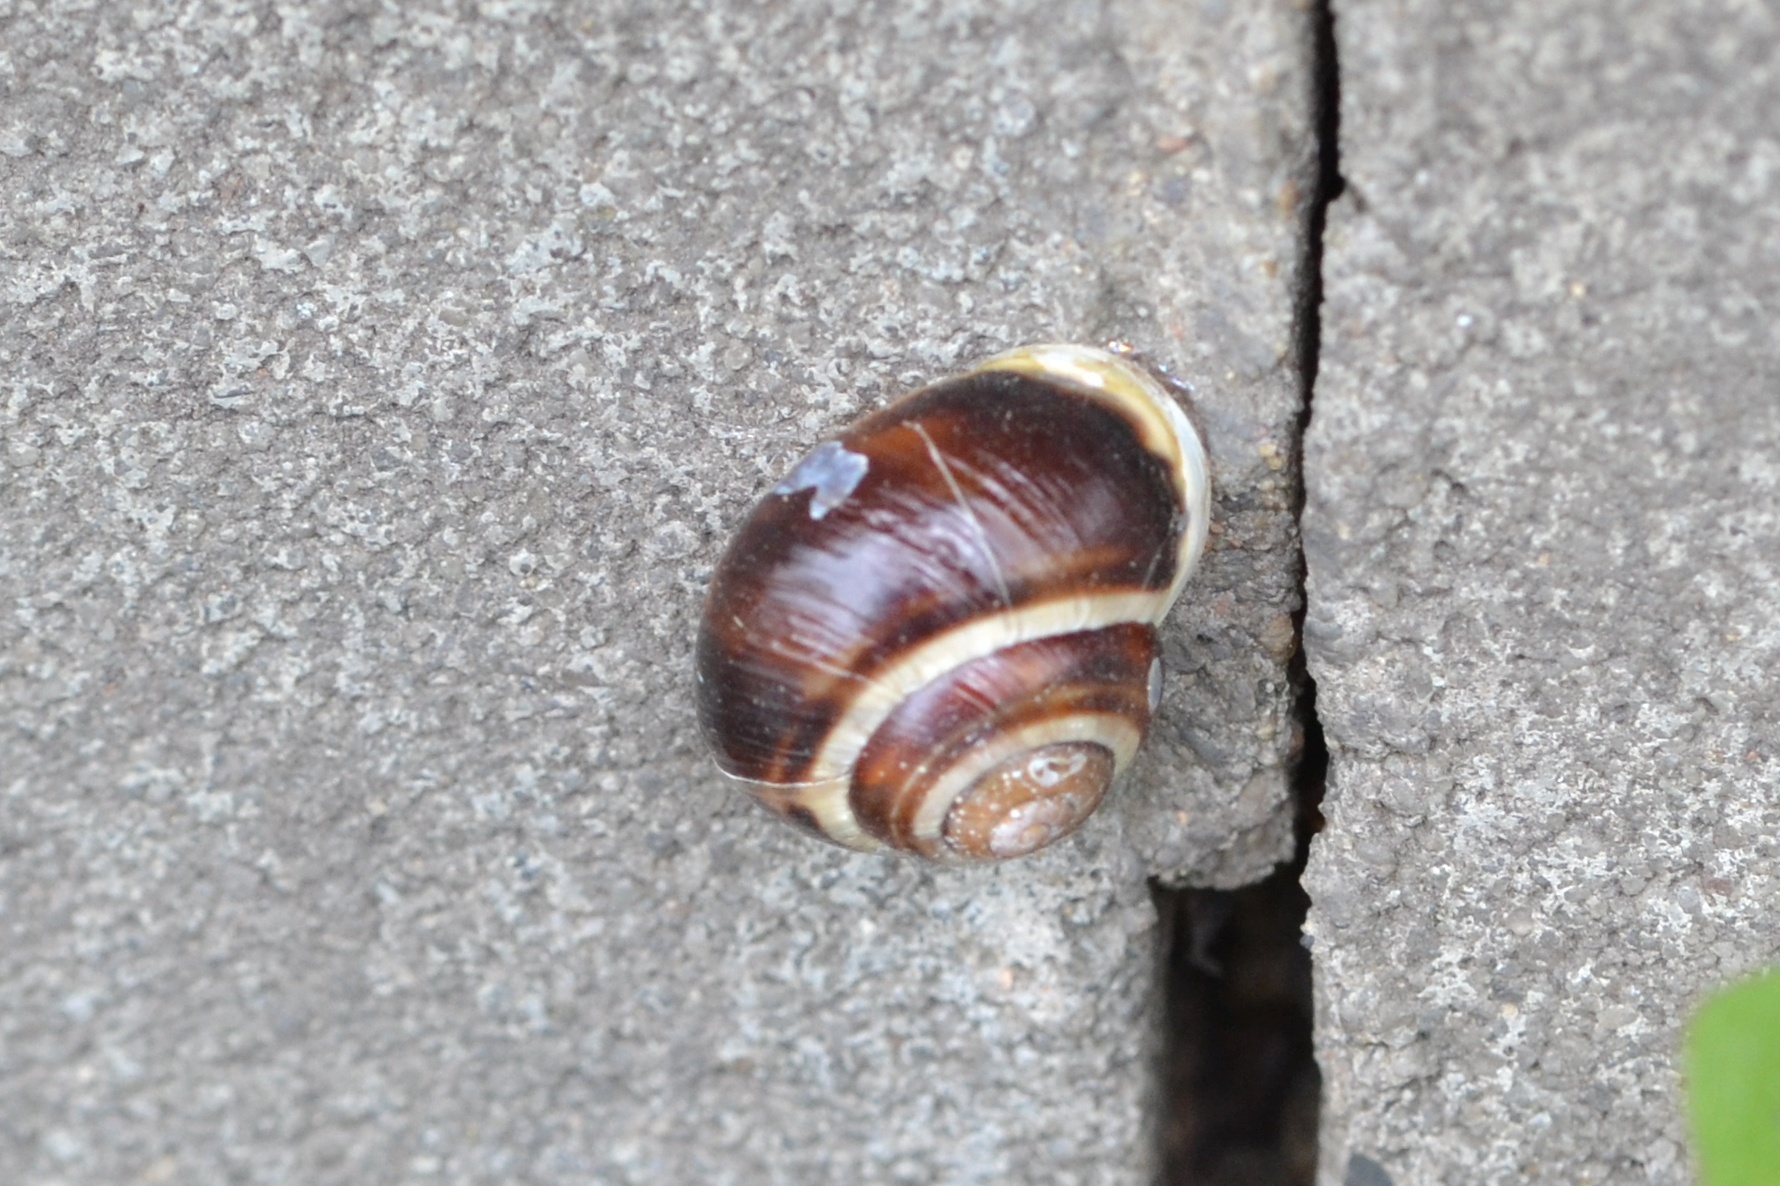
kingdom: Animalia
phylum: Mollusca
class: Gastropoda
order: Stylommatophora
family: Helicidae
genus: Cepaea
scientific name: Cepaea hortensis
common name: White-lip gardensnail
